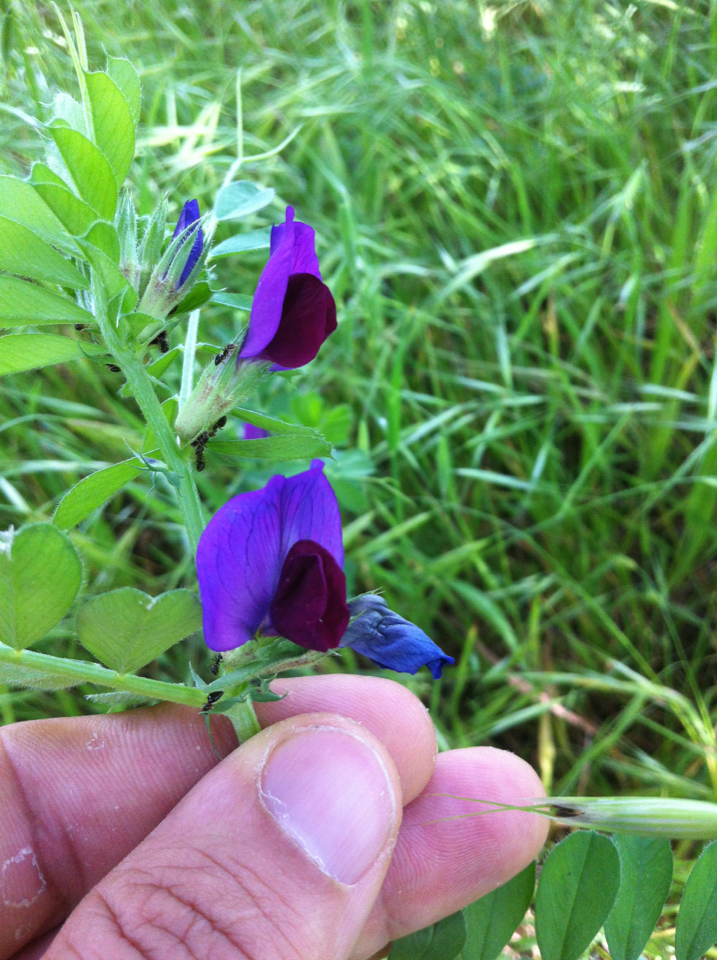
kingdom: Plantae
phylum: Tracheophyta
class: Magnoliopsida
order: Fabales
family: Fabaceae
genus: Vicia
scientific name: Vicia sativa
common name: Garden vetch
